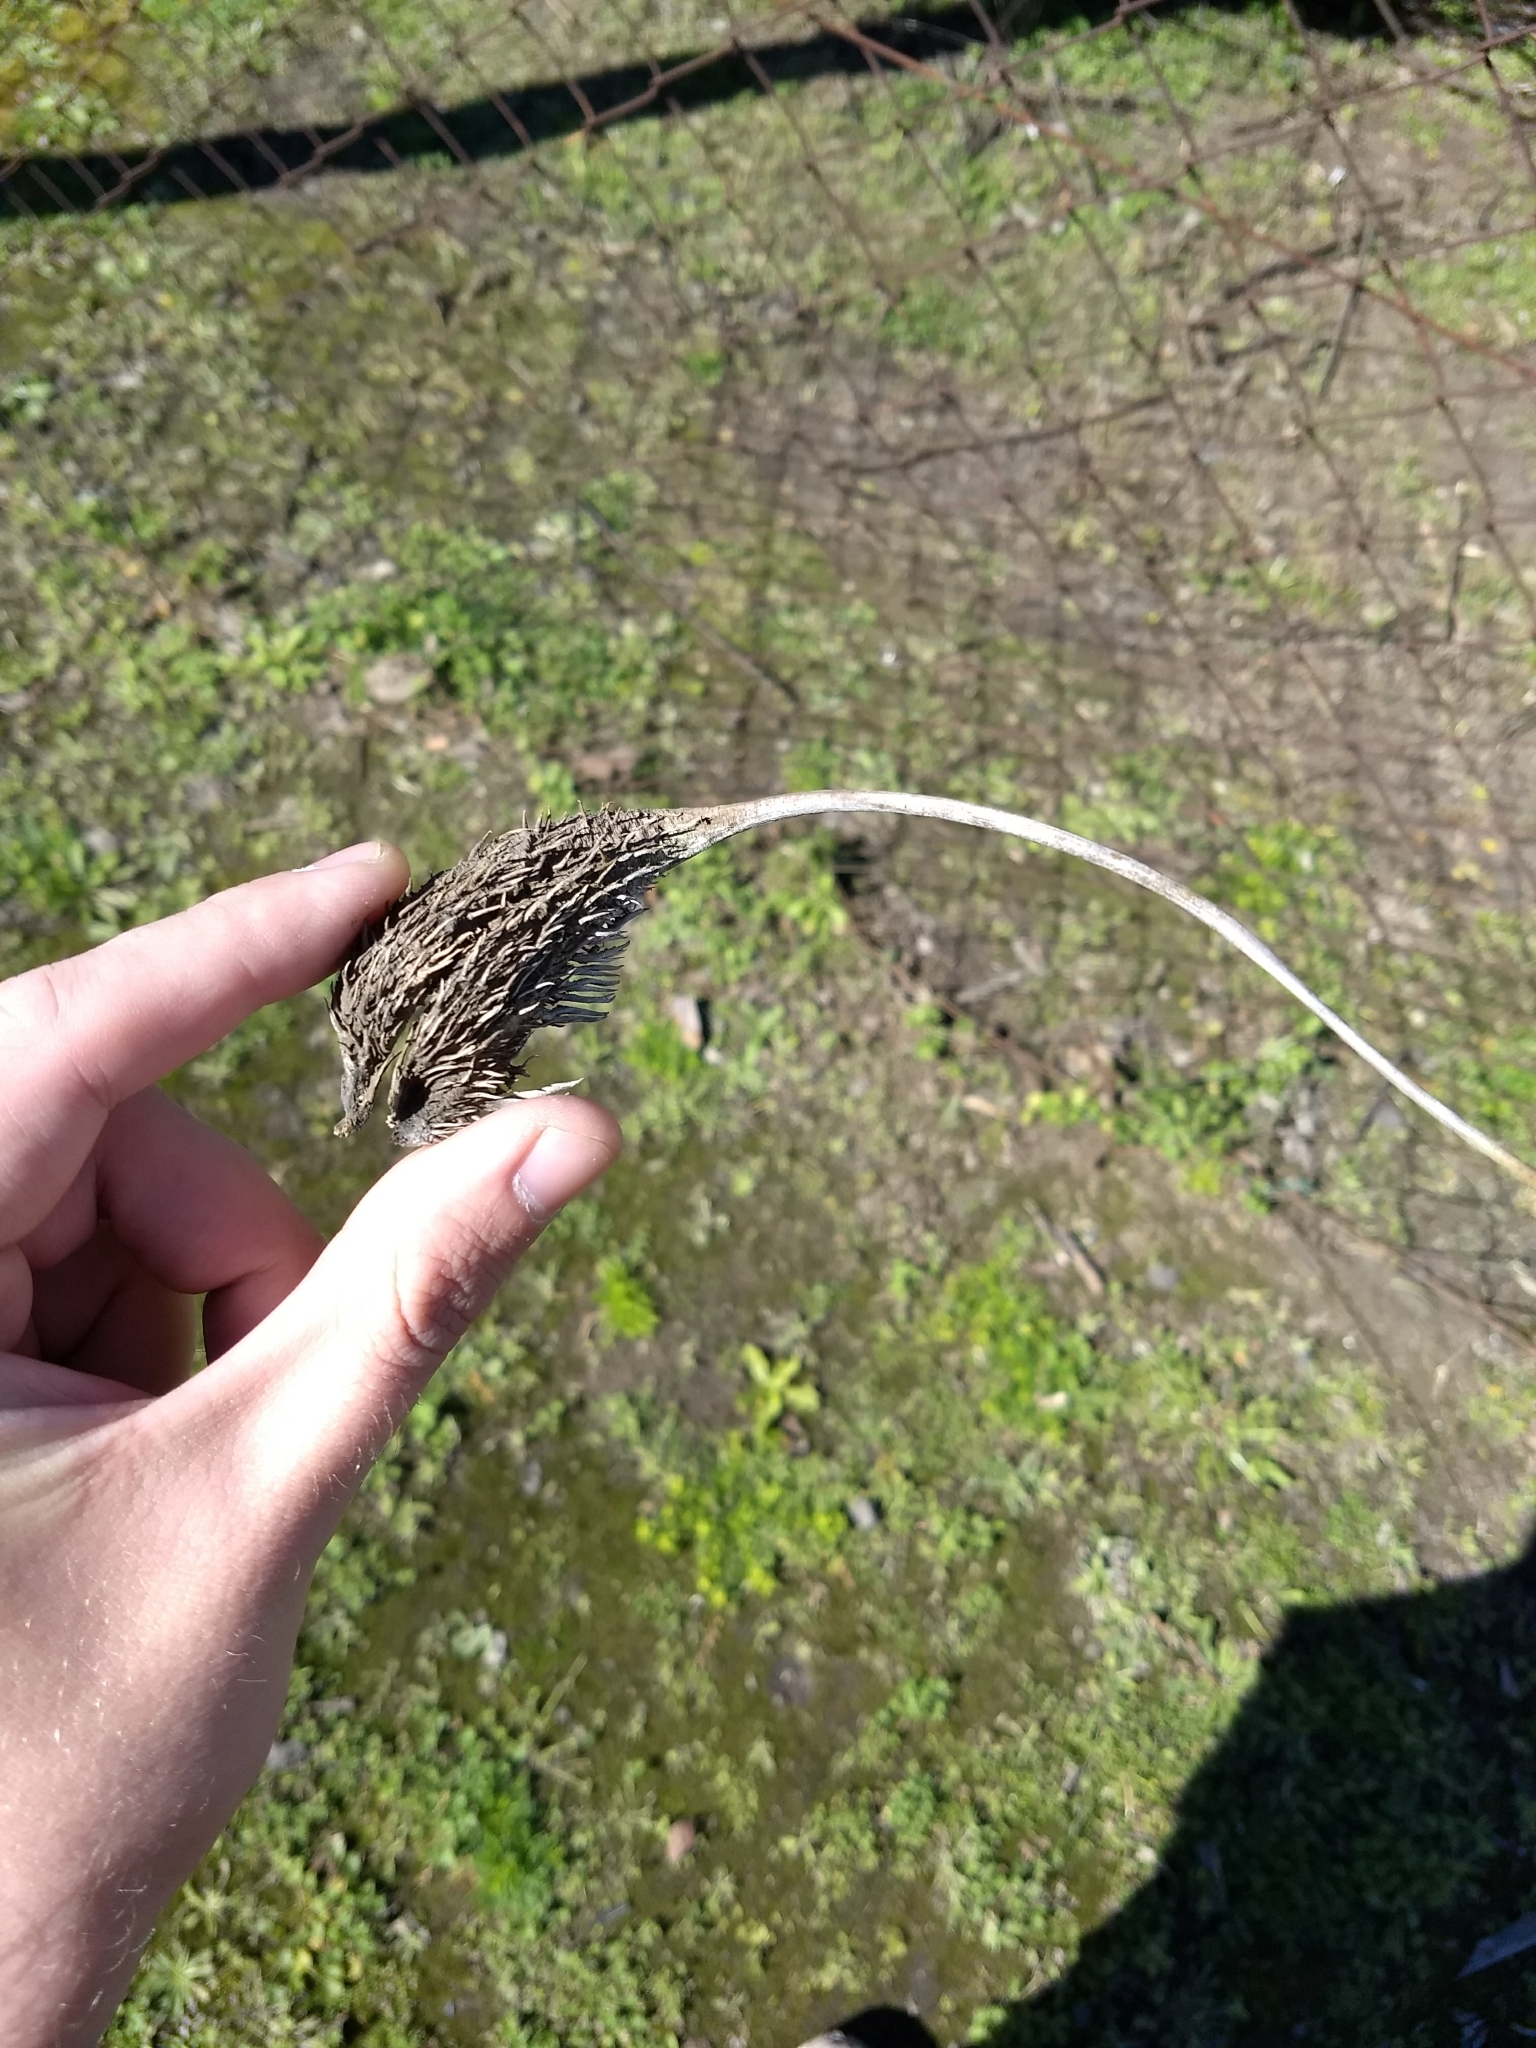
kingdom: Plantae
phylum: Tracheophyta
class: Magnoliopsida
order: Lamiales
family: Martyniaceae
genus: Ibicella
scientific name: Ibicella lutea
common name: Yellow unicorn-plant
